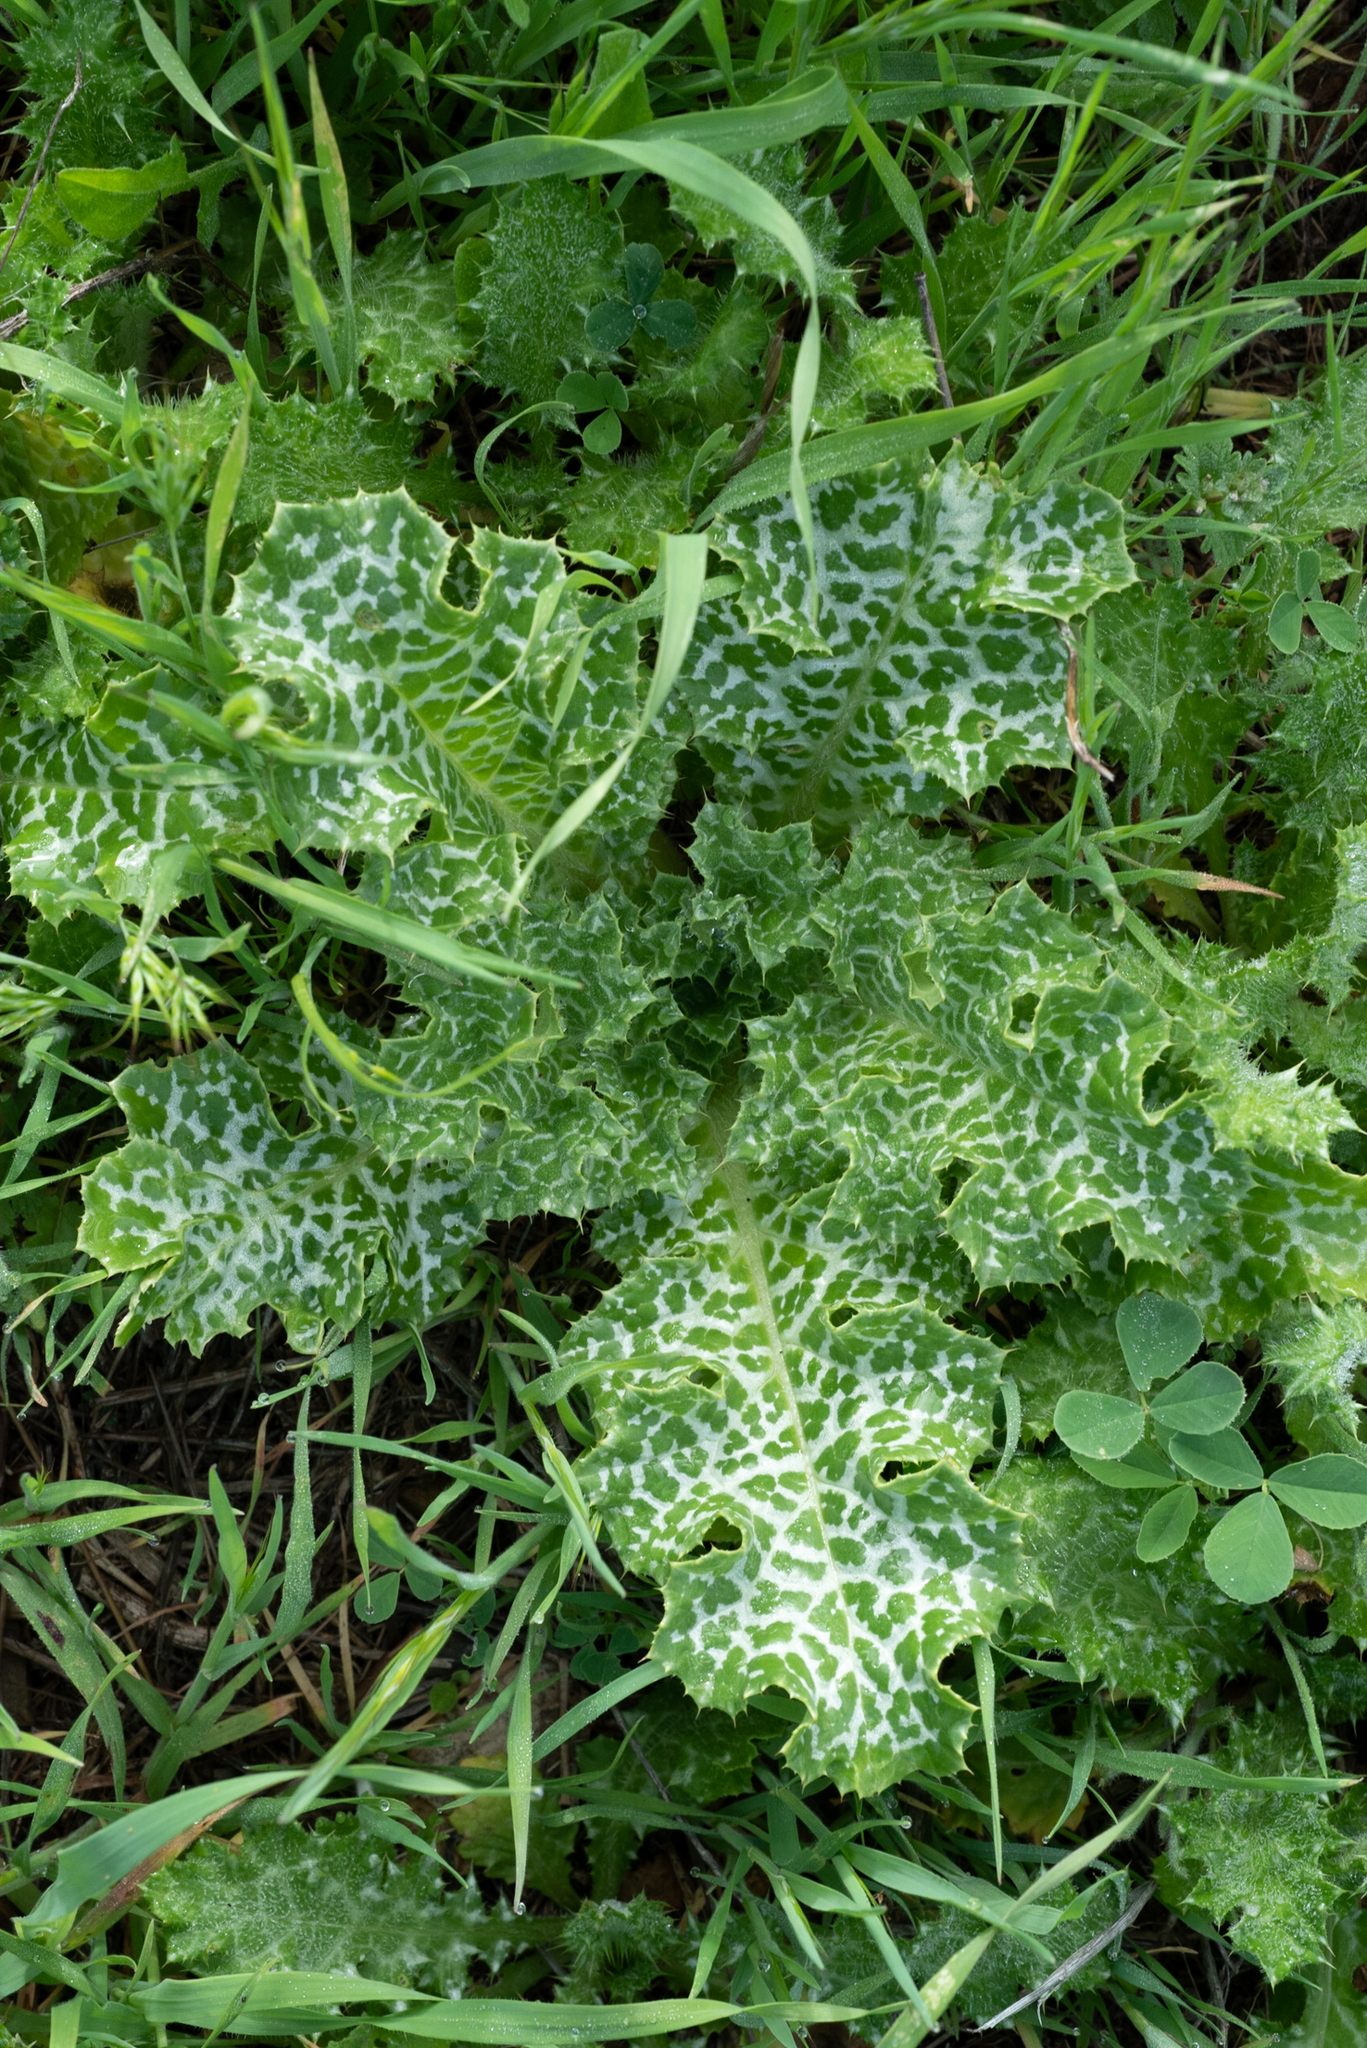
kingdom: Plantae
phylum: Tracheophyta
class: Magnoliopsida
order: Asterales
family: Asteraceae
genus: Silybum
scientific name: Silybum marianum
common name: Milk thistle
